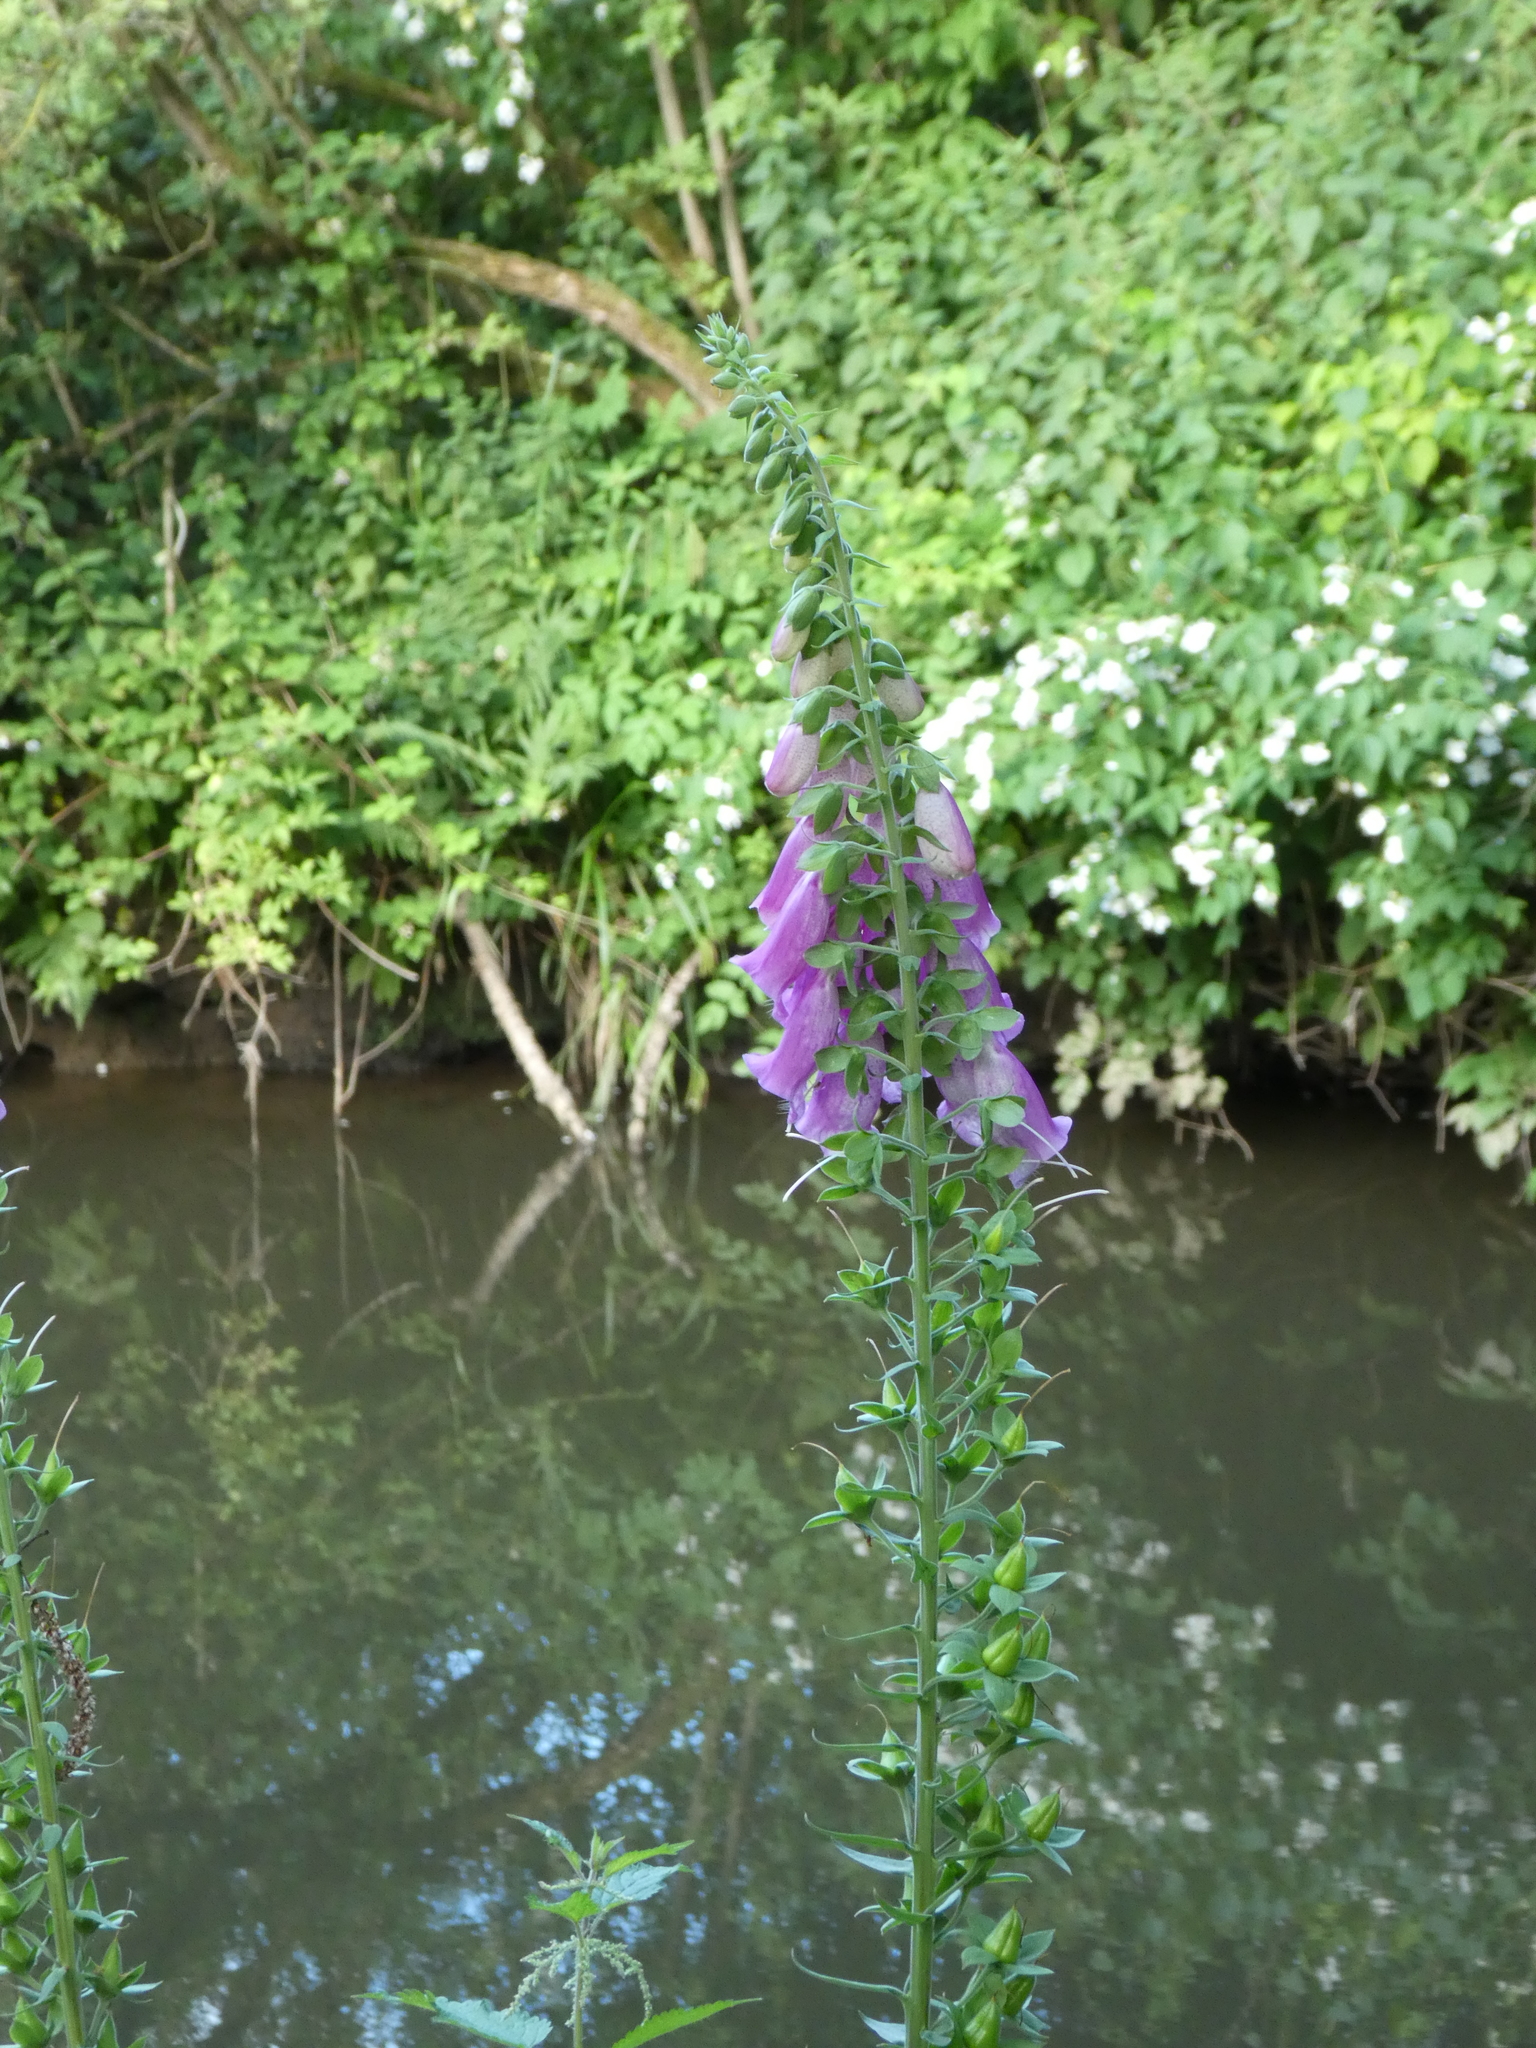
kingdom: Plantae
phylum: Tracheophyta
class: Magnoliopsida
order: Lamiales
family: Plantaginaceae
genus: Digitalis
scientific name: Digitalis purpurea
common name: Foxglove
